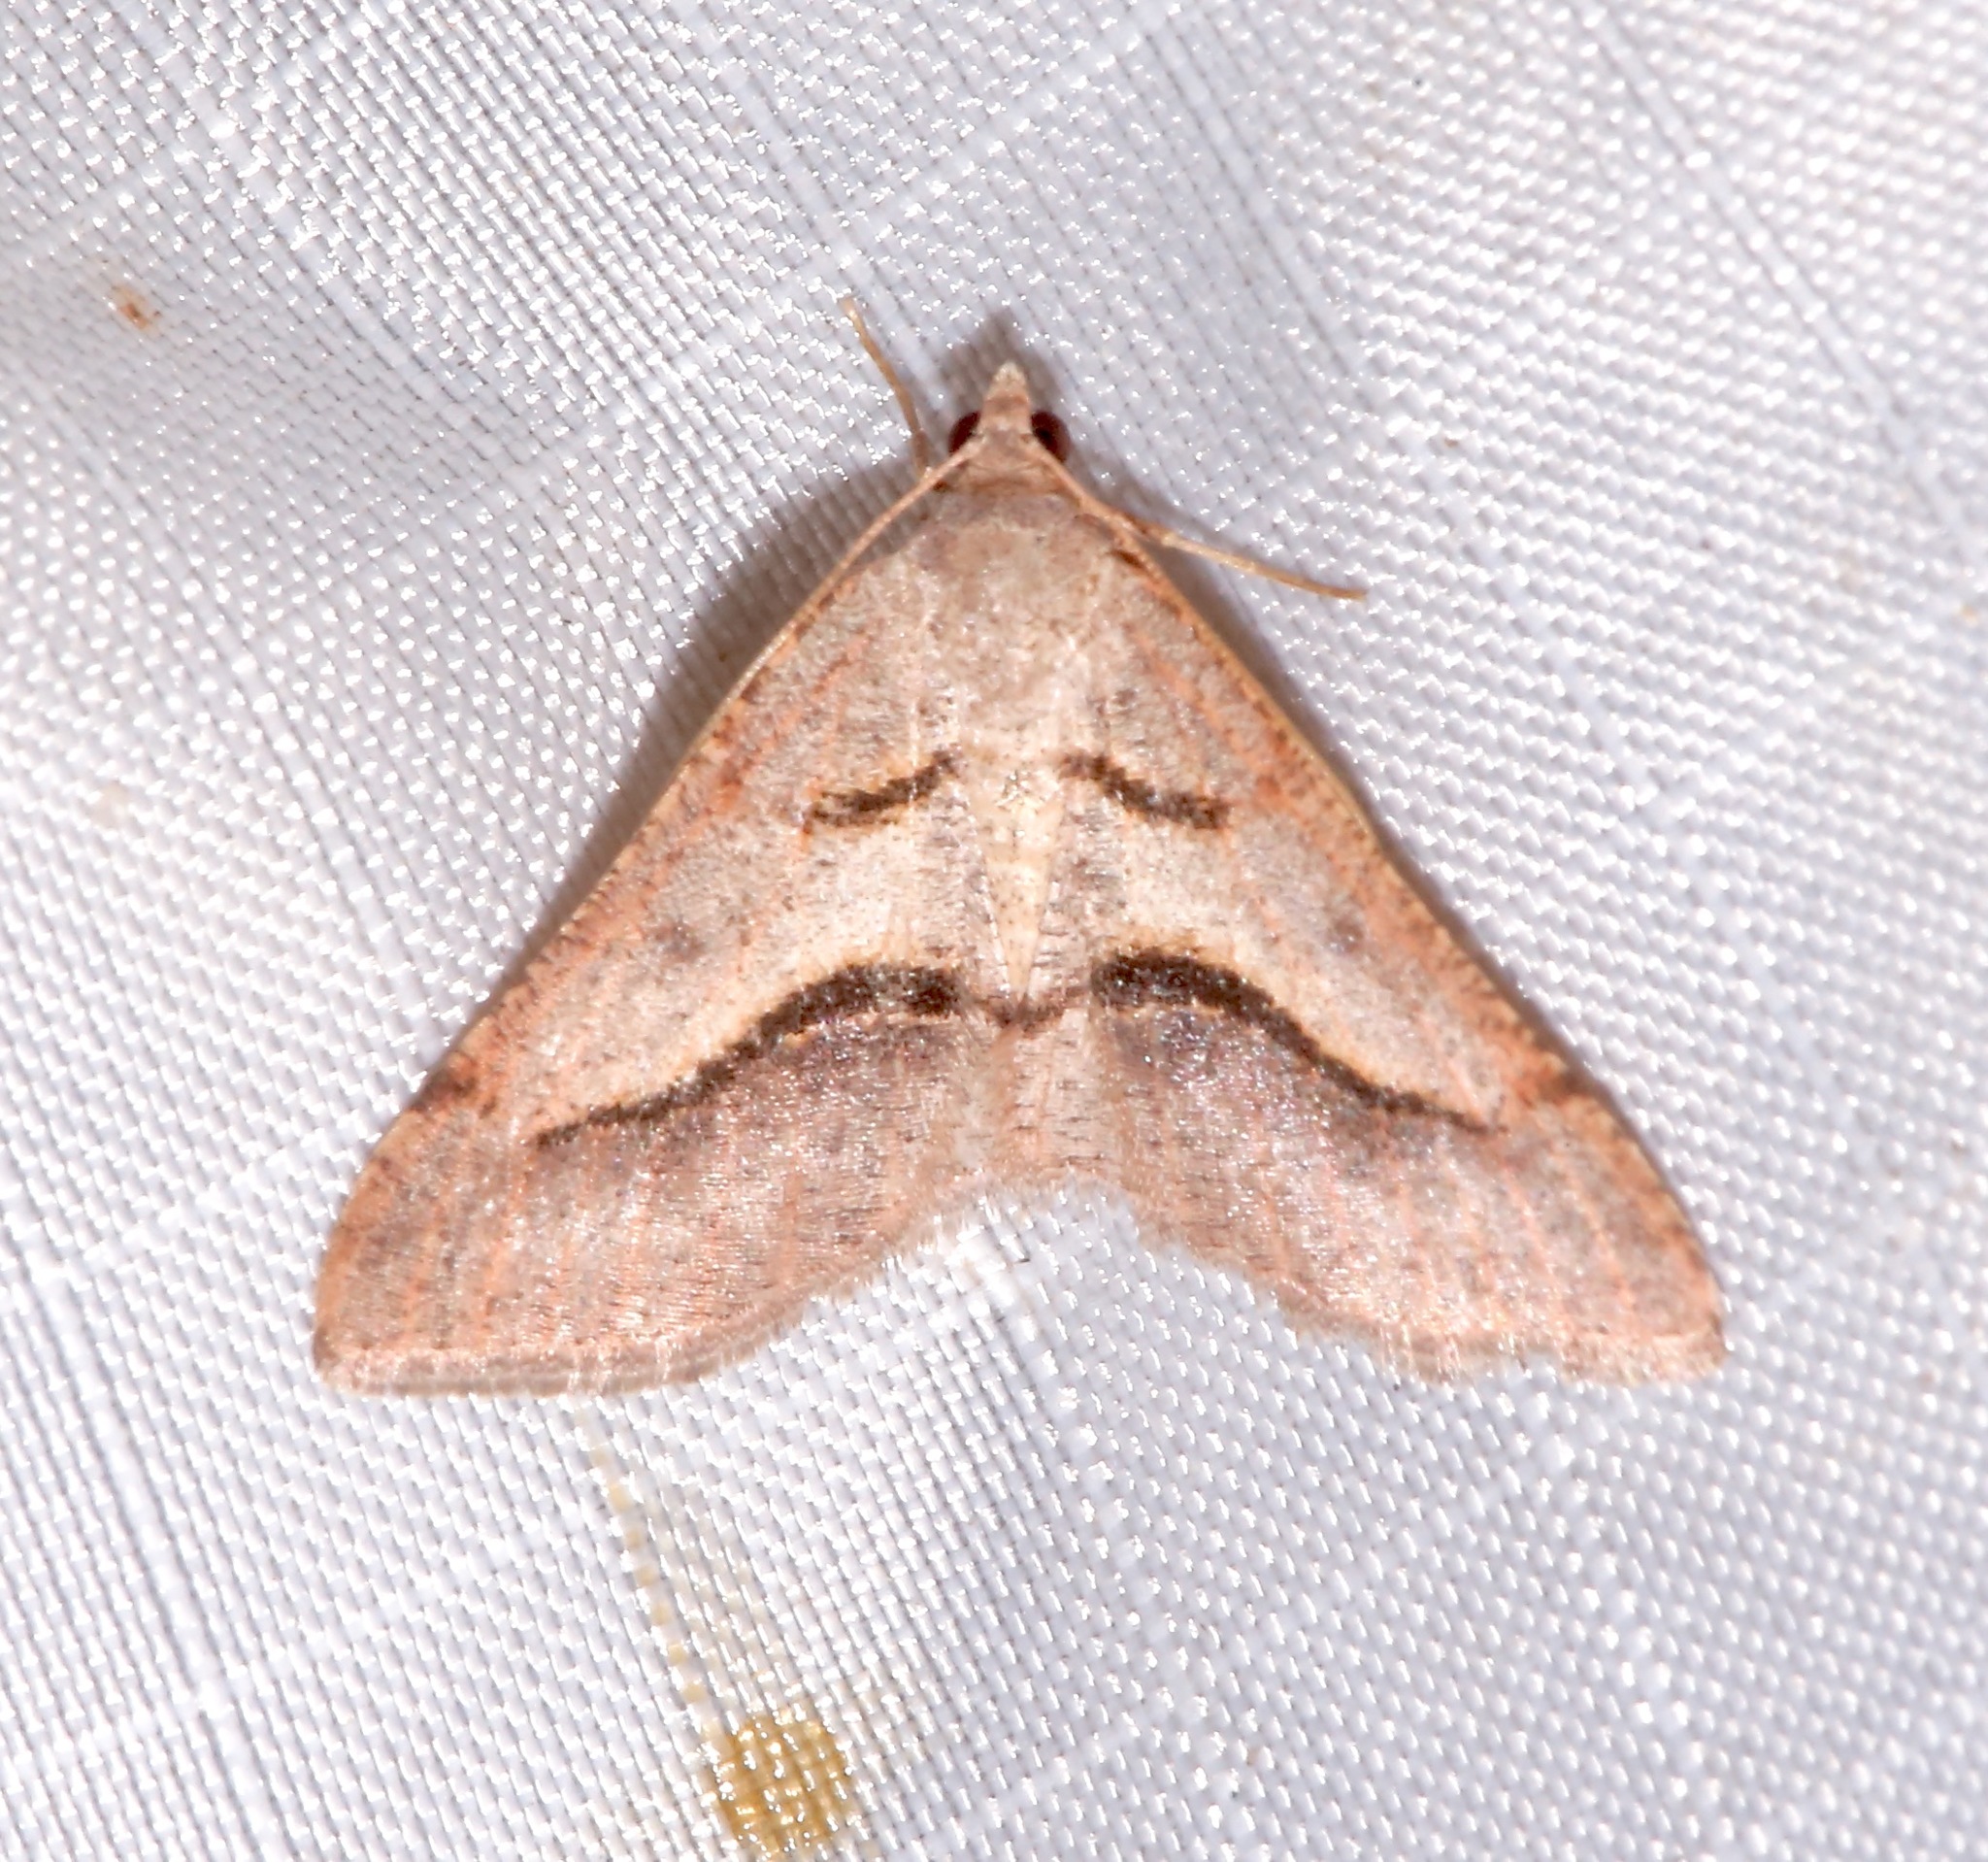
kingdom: Animalia
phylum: Arthropoda
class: Insecta
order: Lepidoptera
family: Geometridae
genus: Digrammia
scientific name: Digrammia subminiata
